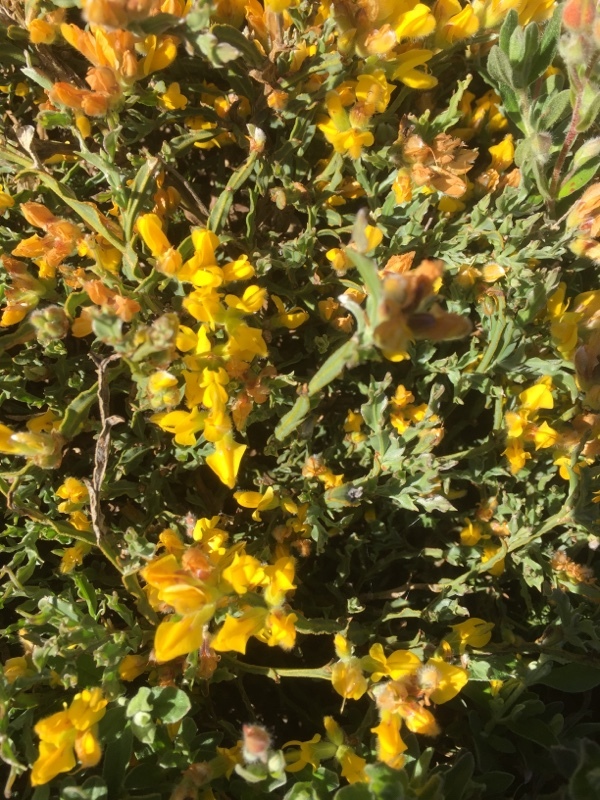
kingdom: Plantae
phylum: Tracheophyta
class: Magnoliopsida
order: Fabales
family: Fabaceae
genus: Genista
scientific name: Genista tridentata
